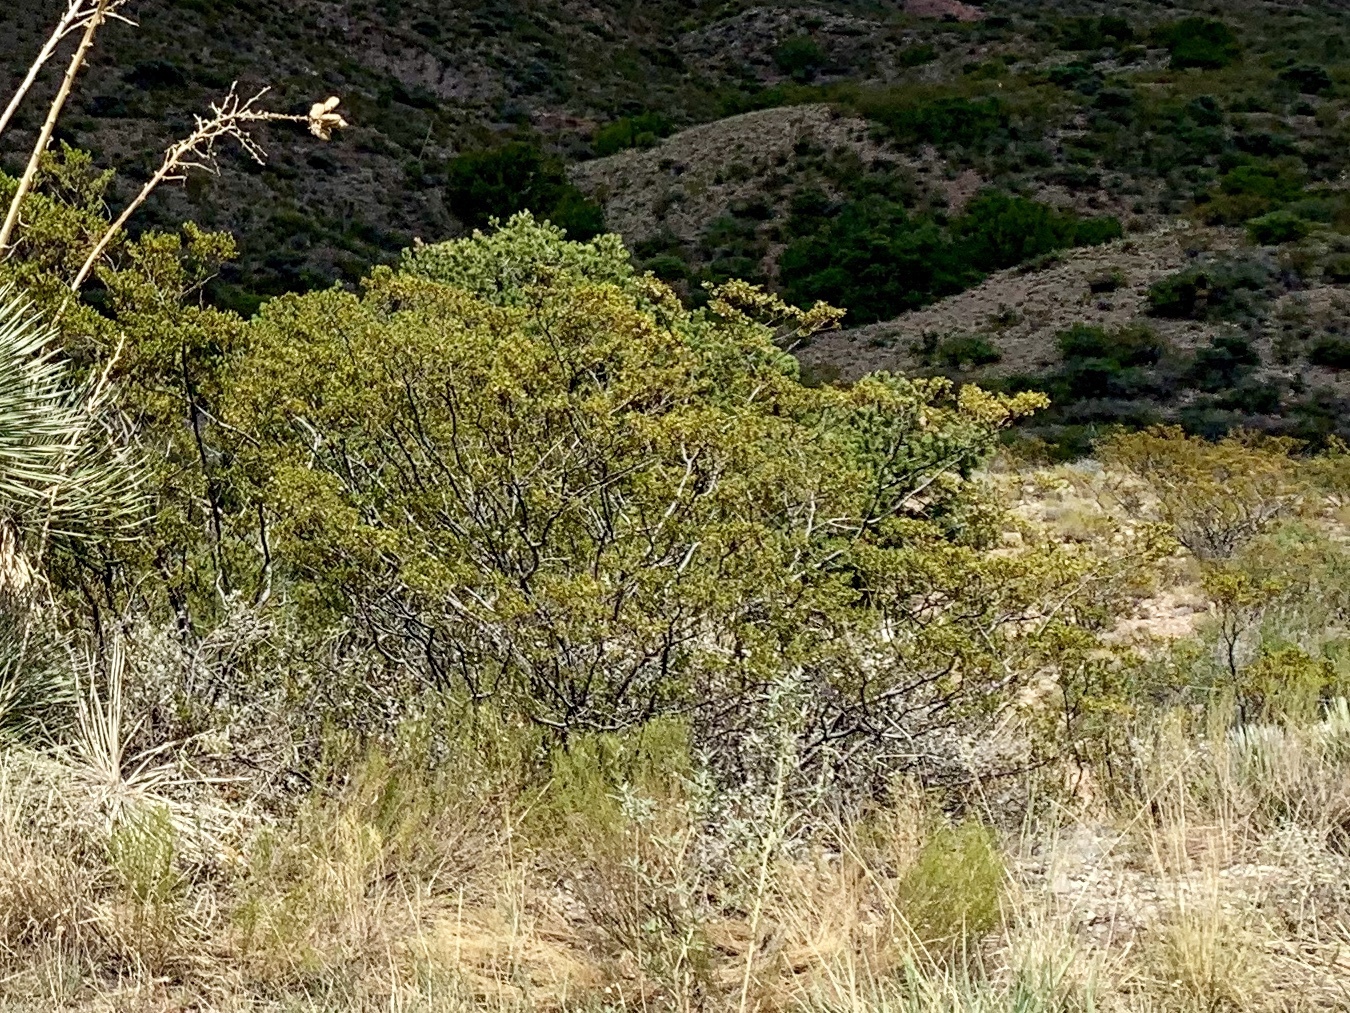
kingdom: Plantae
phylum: Tracheophyta
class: Magnoliopsida
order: Zygophyllales
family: Zygophyllaceae
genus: Larrea
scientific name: Larrea tridentata
